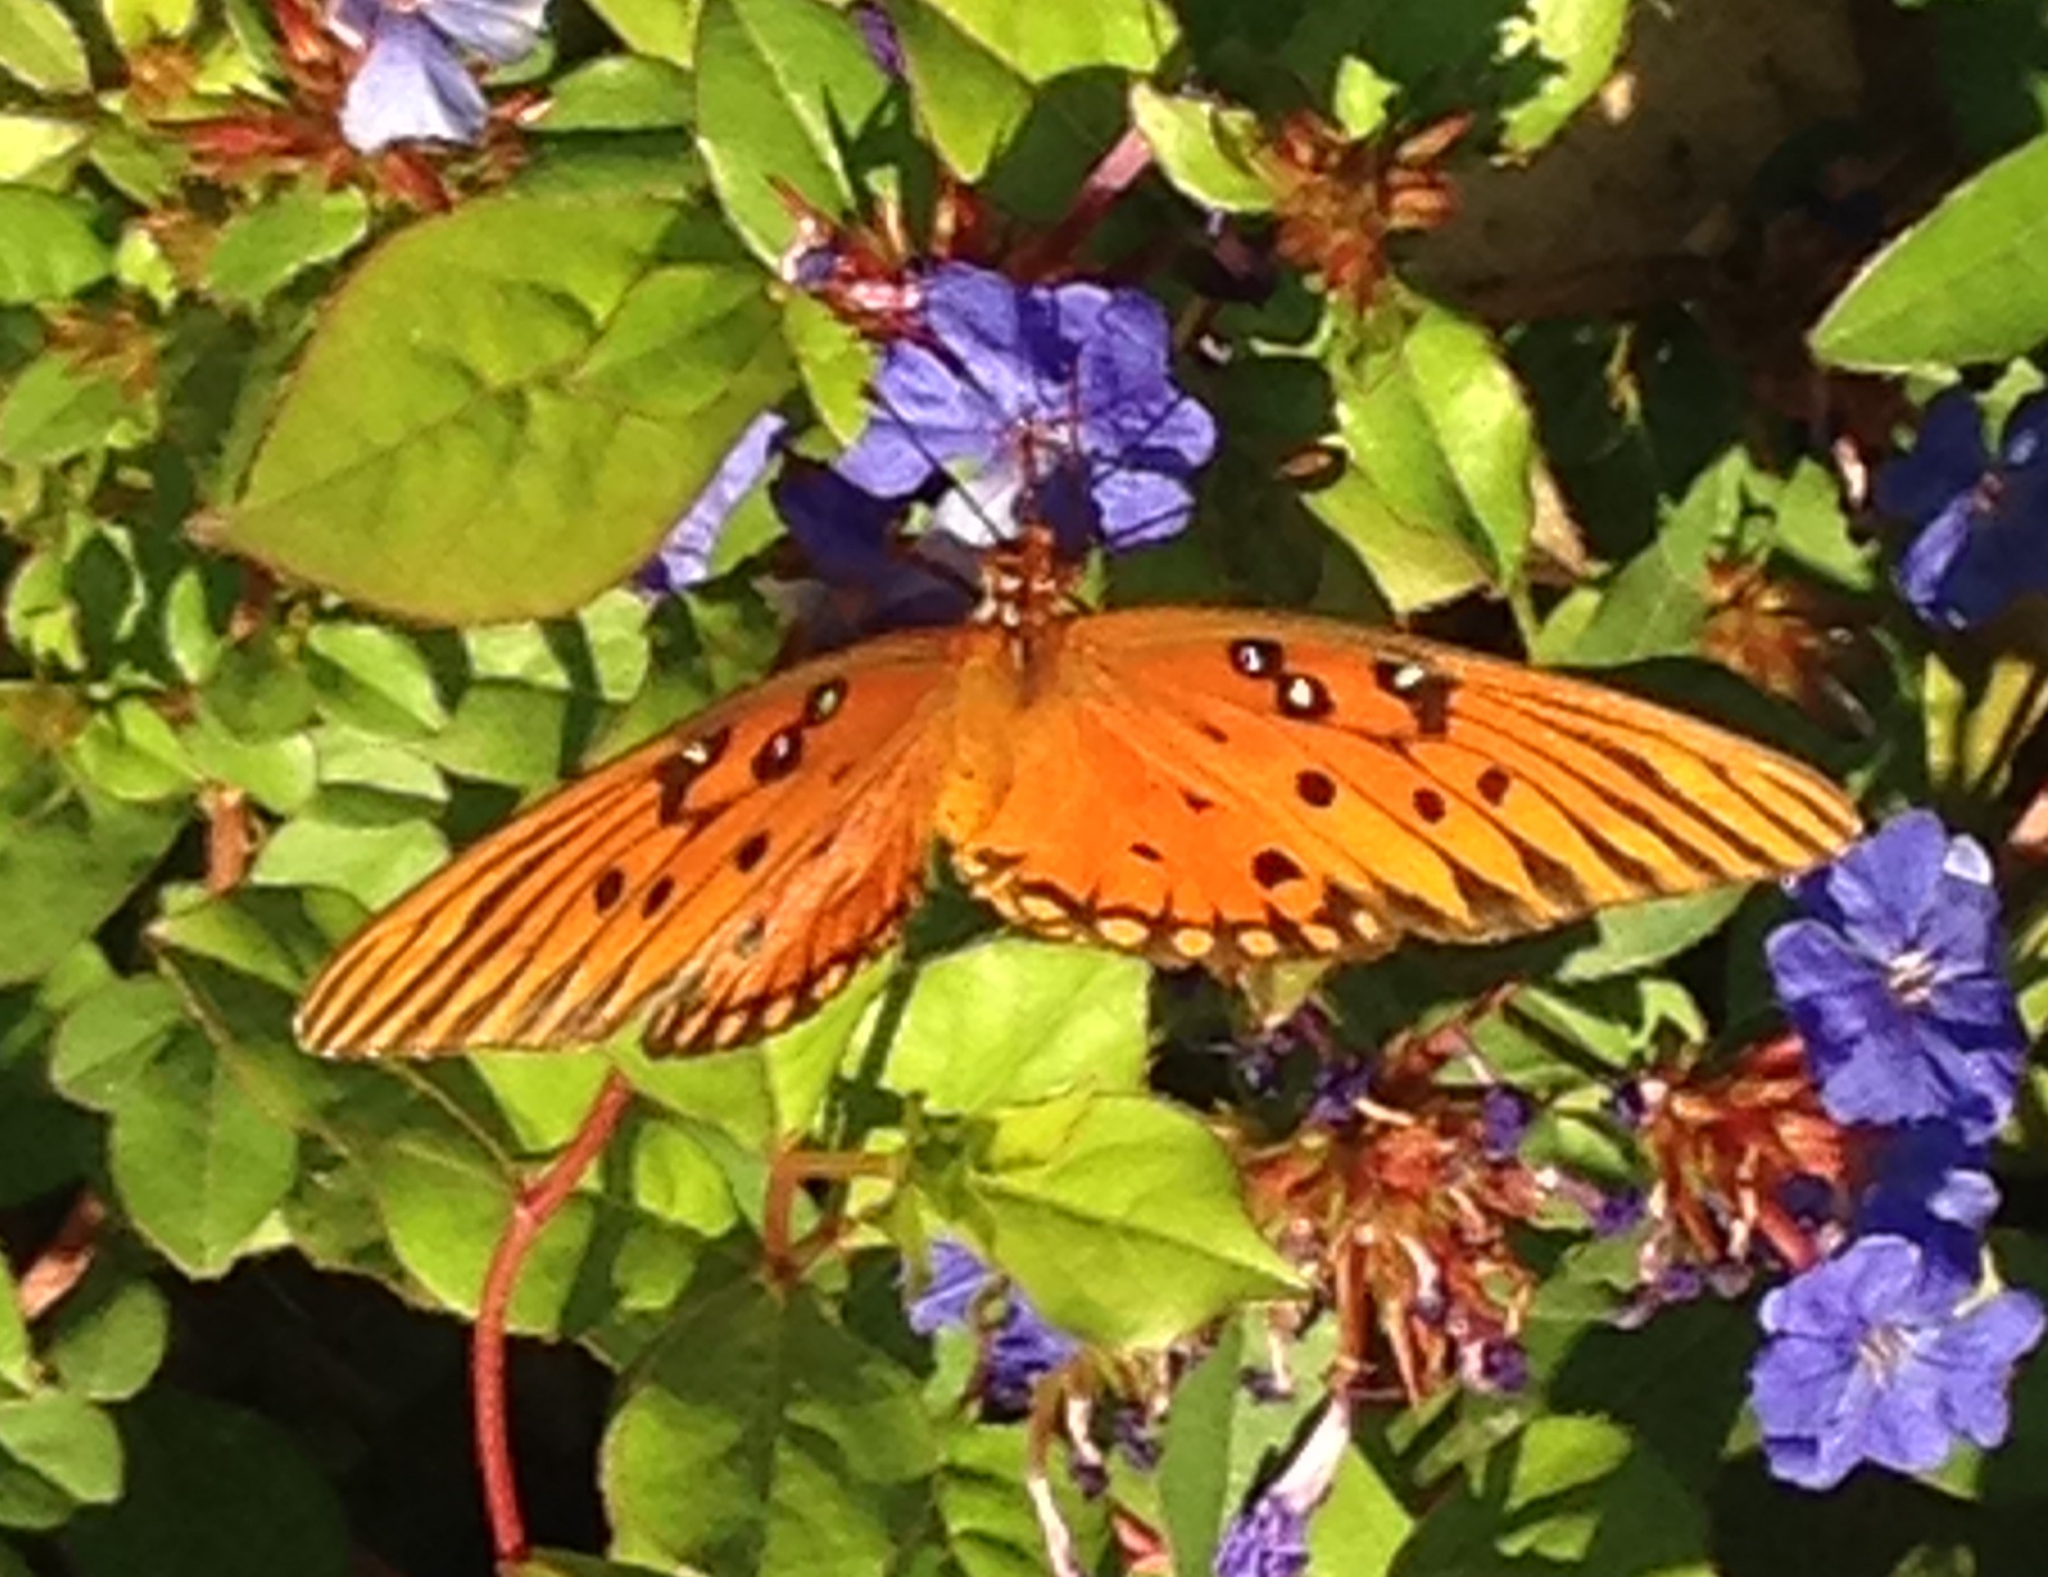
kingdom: Animalia
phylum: Arthropoda
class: Insecta
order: Lepidoptera
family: Nymphalidae
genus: Dione
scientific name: Dione vanillae
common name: Gulf fritillary
